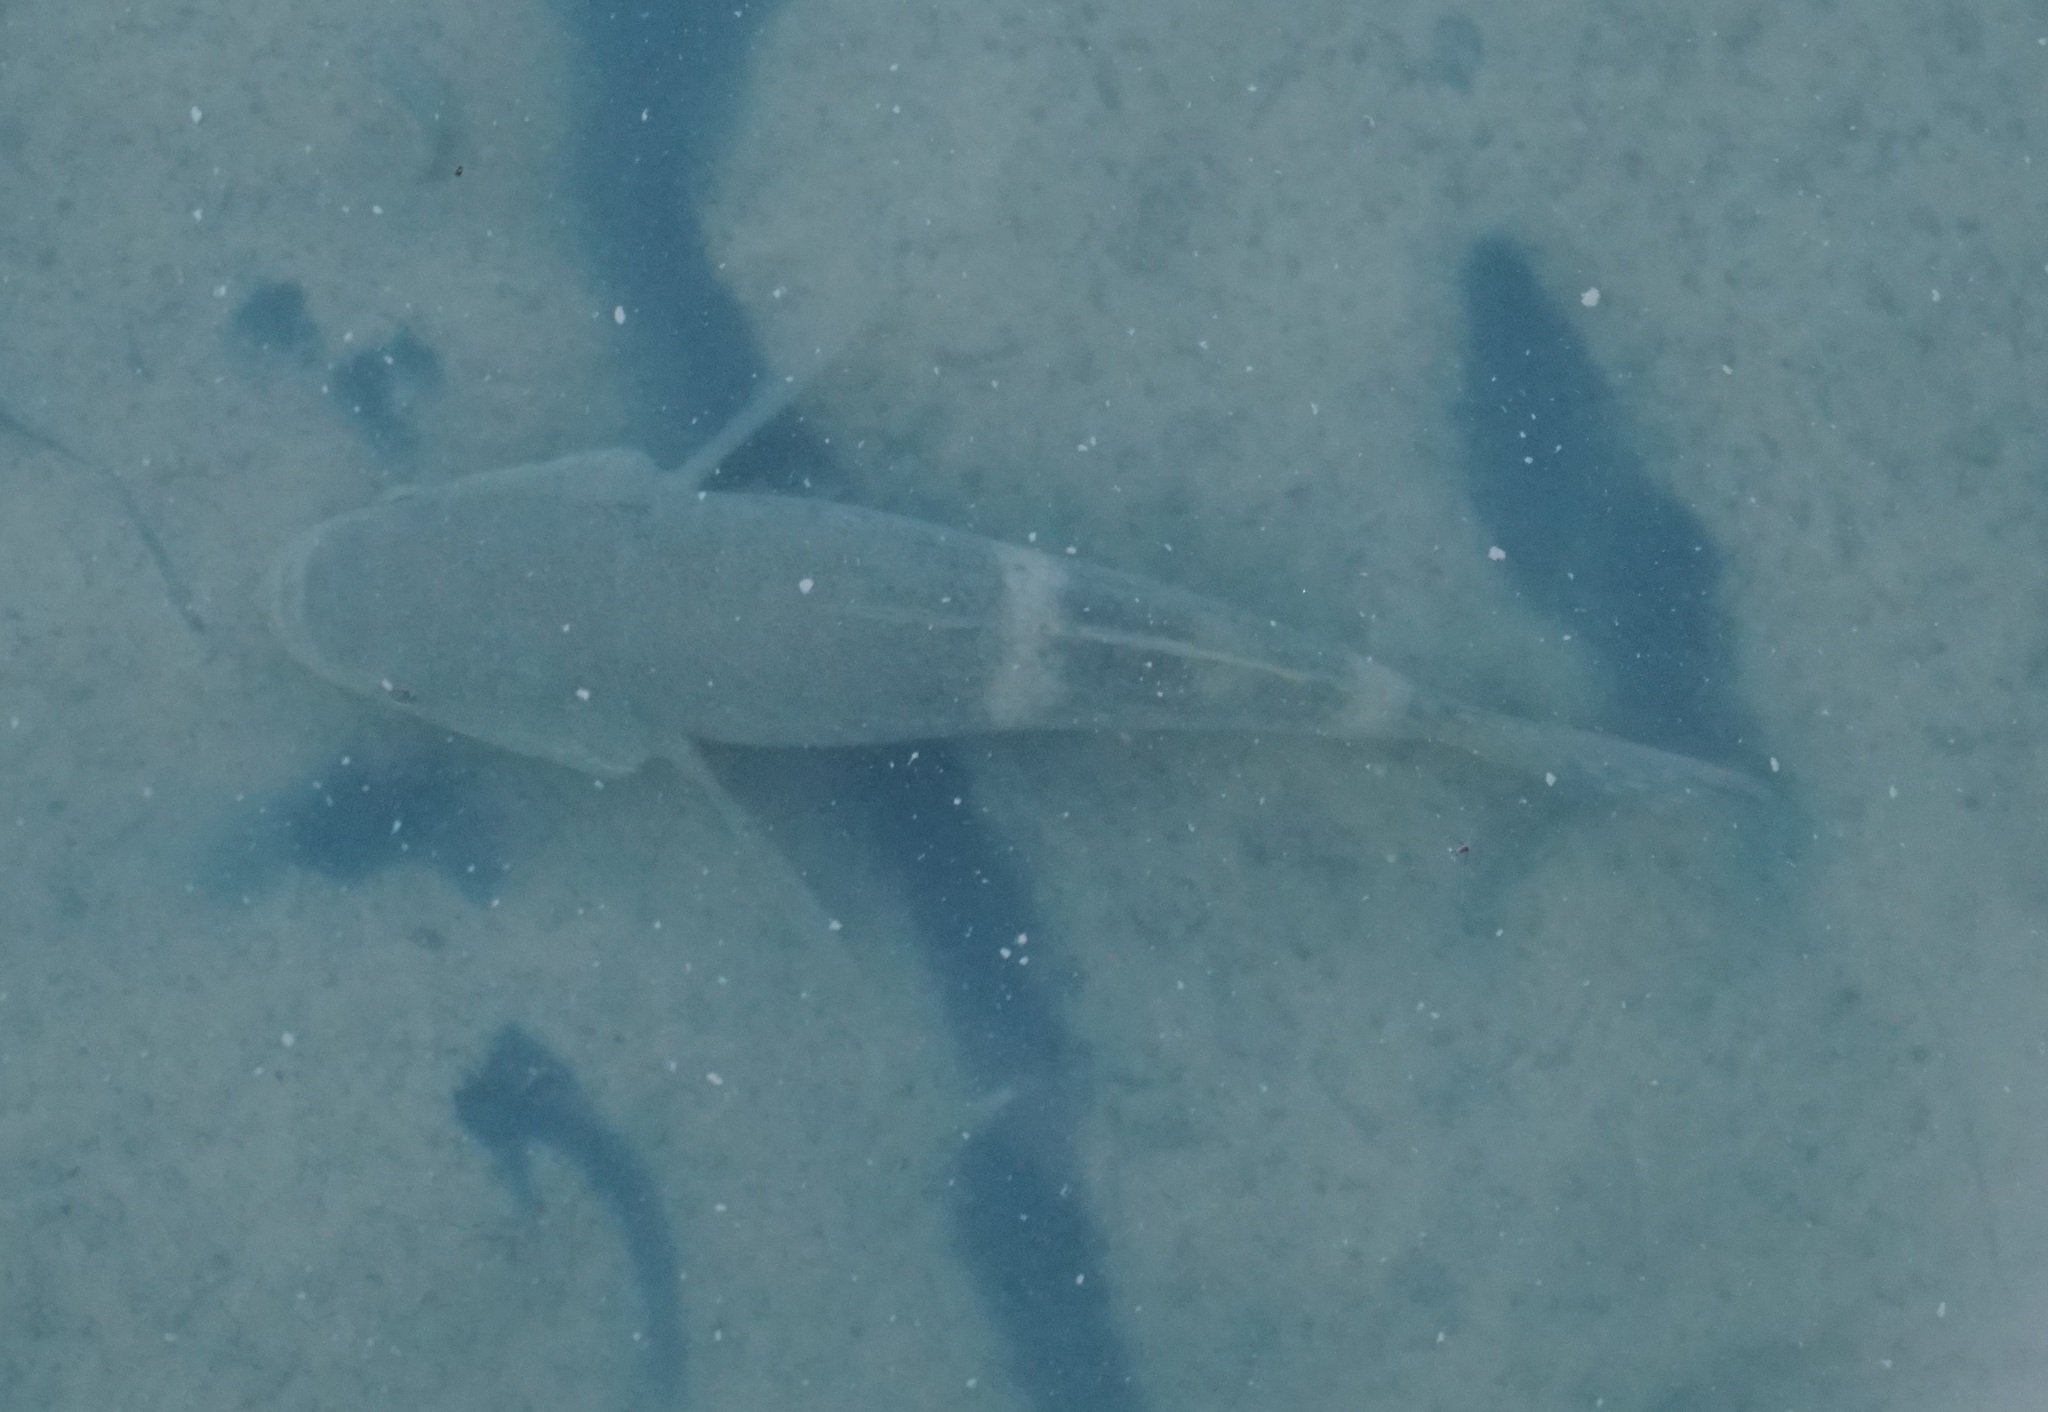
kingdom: Animalia
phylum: Chordata
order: Perciformes
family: Eleotridae
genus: Ophiocara
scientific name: Ophiocara porocephala
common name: Spangled gudgeon
